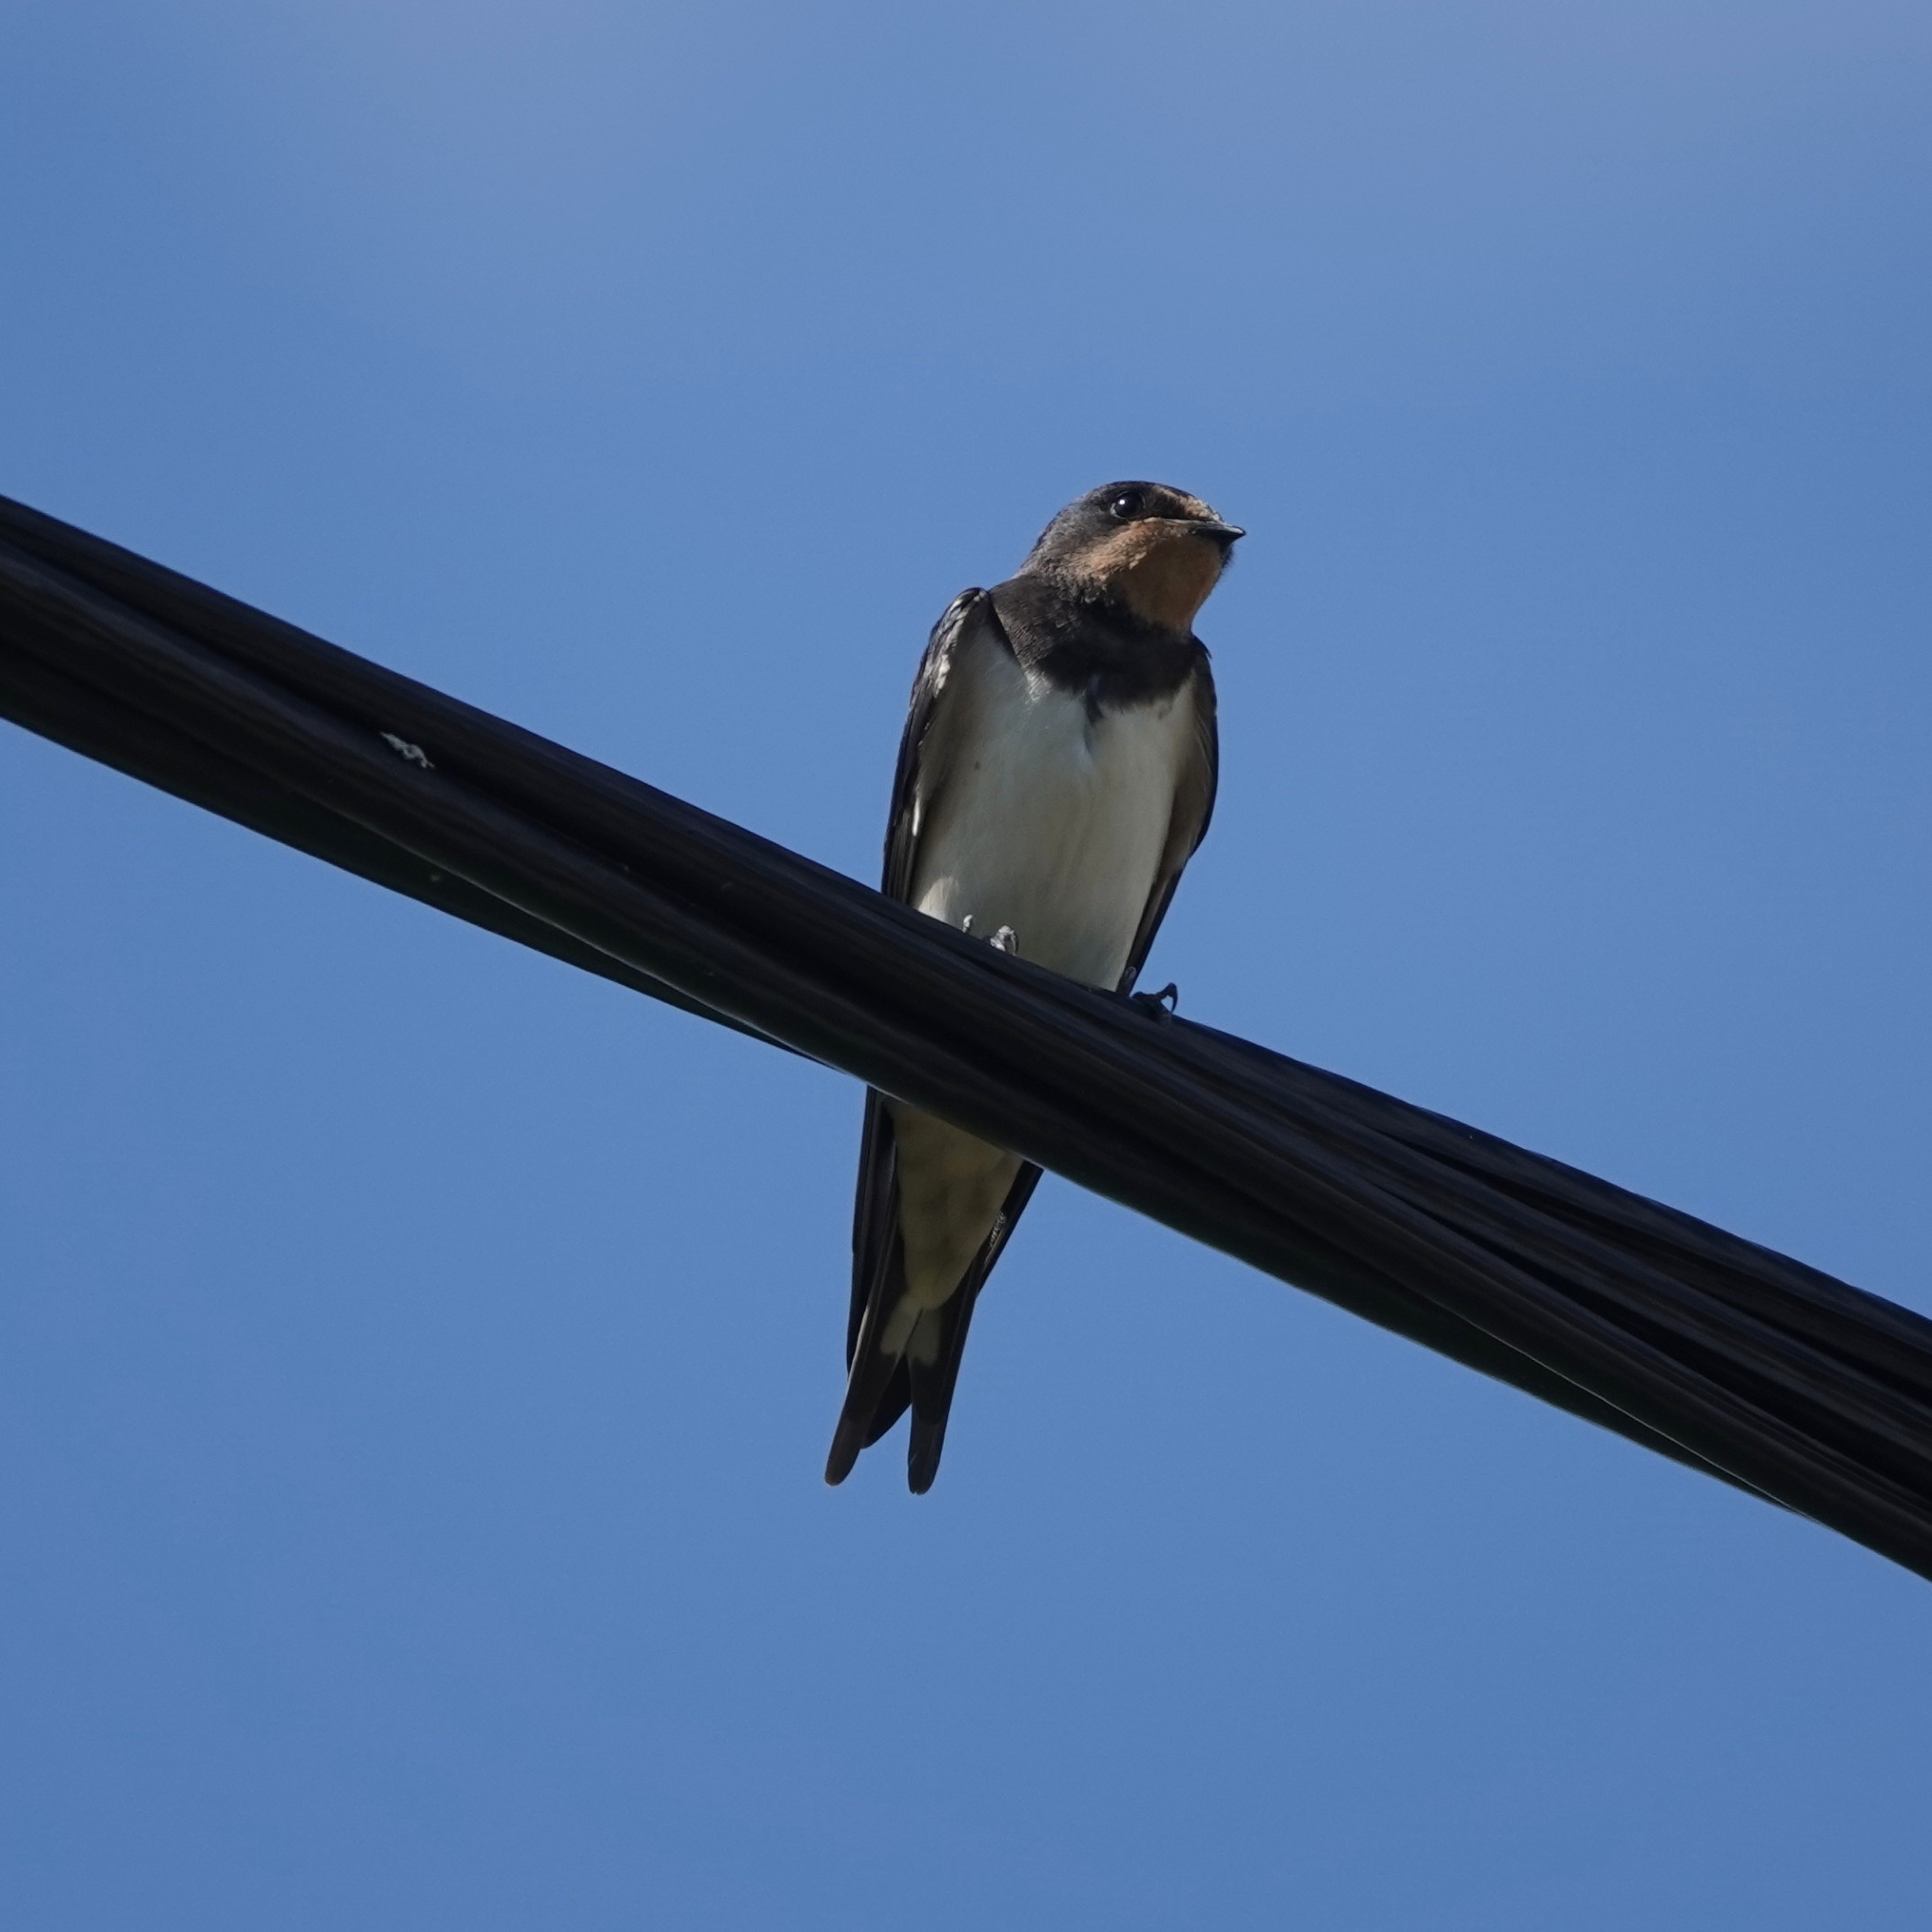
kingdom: Animalia
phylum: Chordata
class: Aves
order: Passeriformes
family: Hirundinidae
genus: Hirundo
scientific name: Hirundo rustica
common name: Barn swallow
